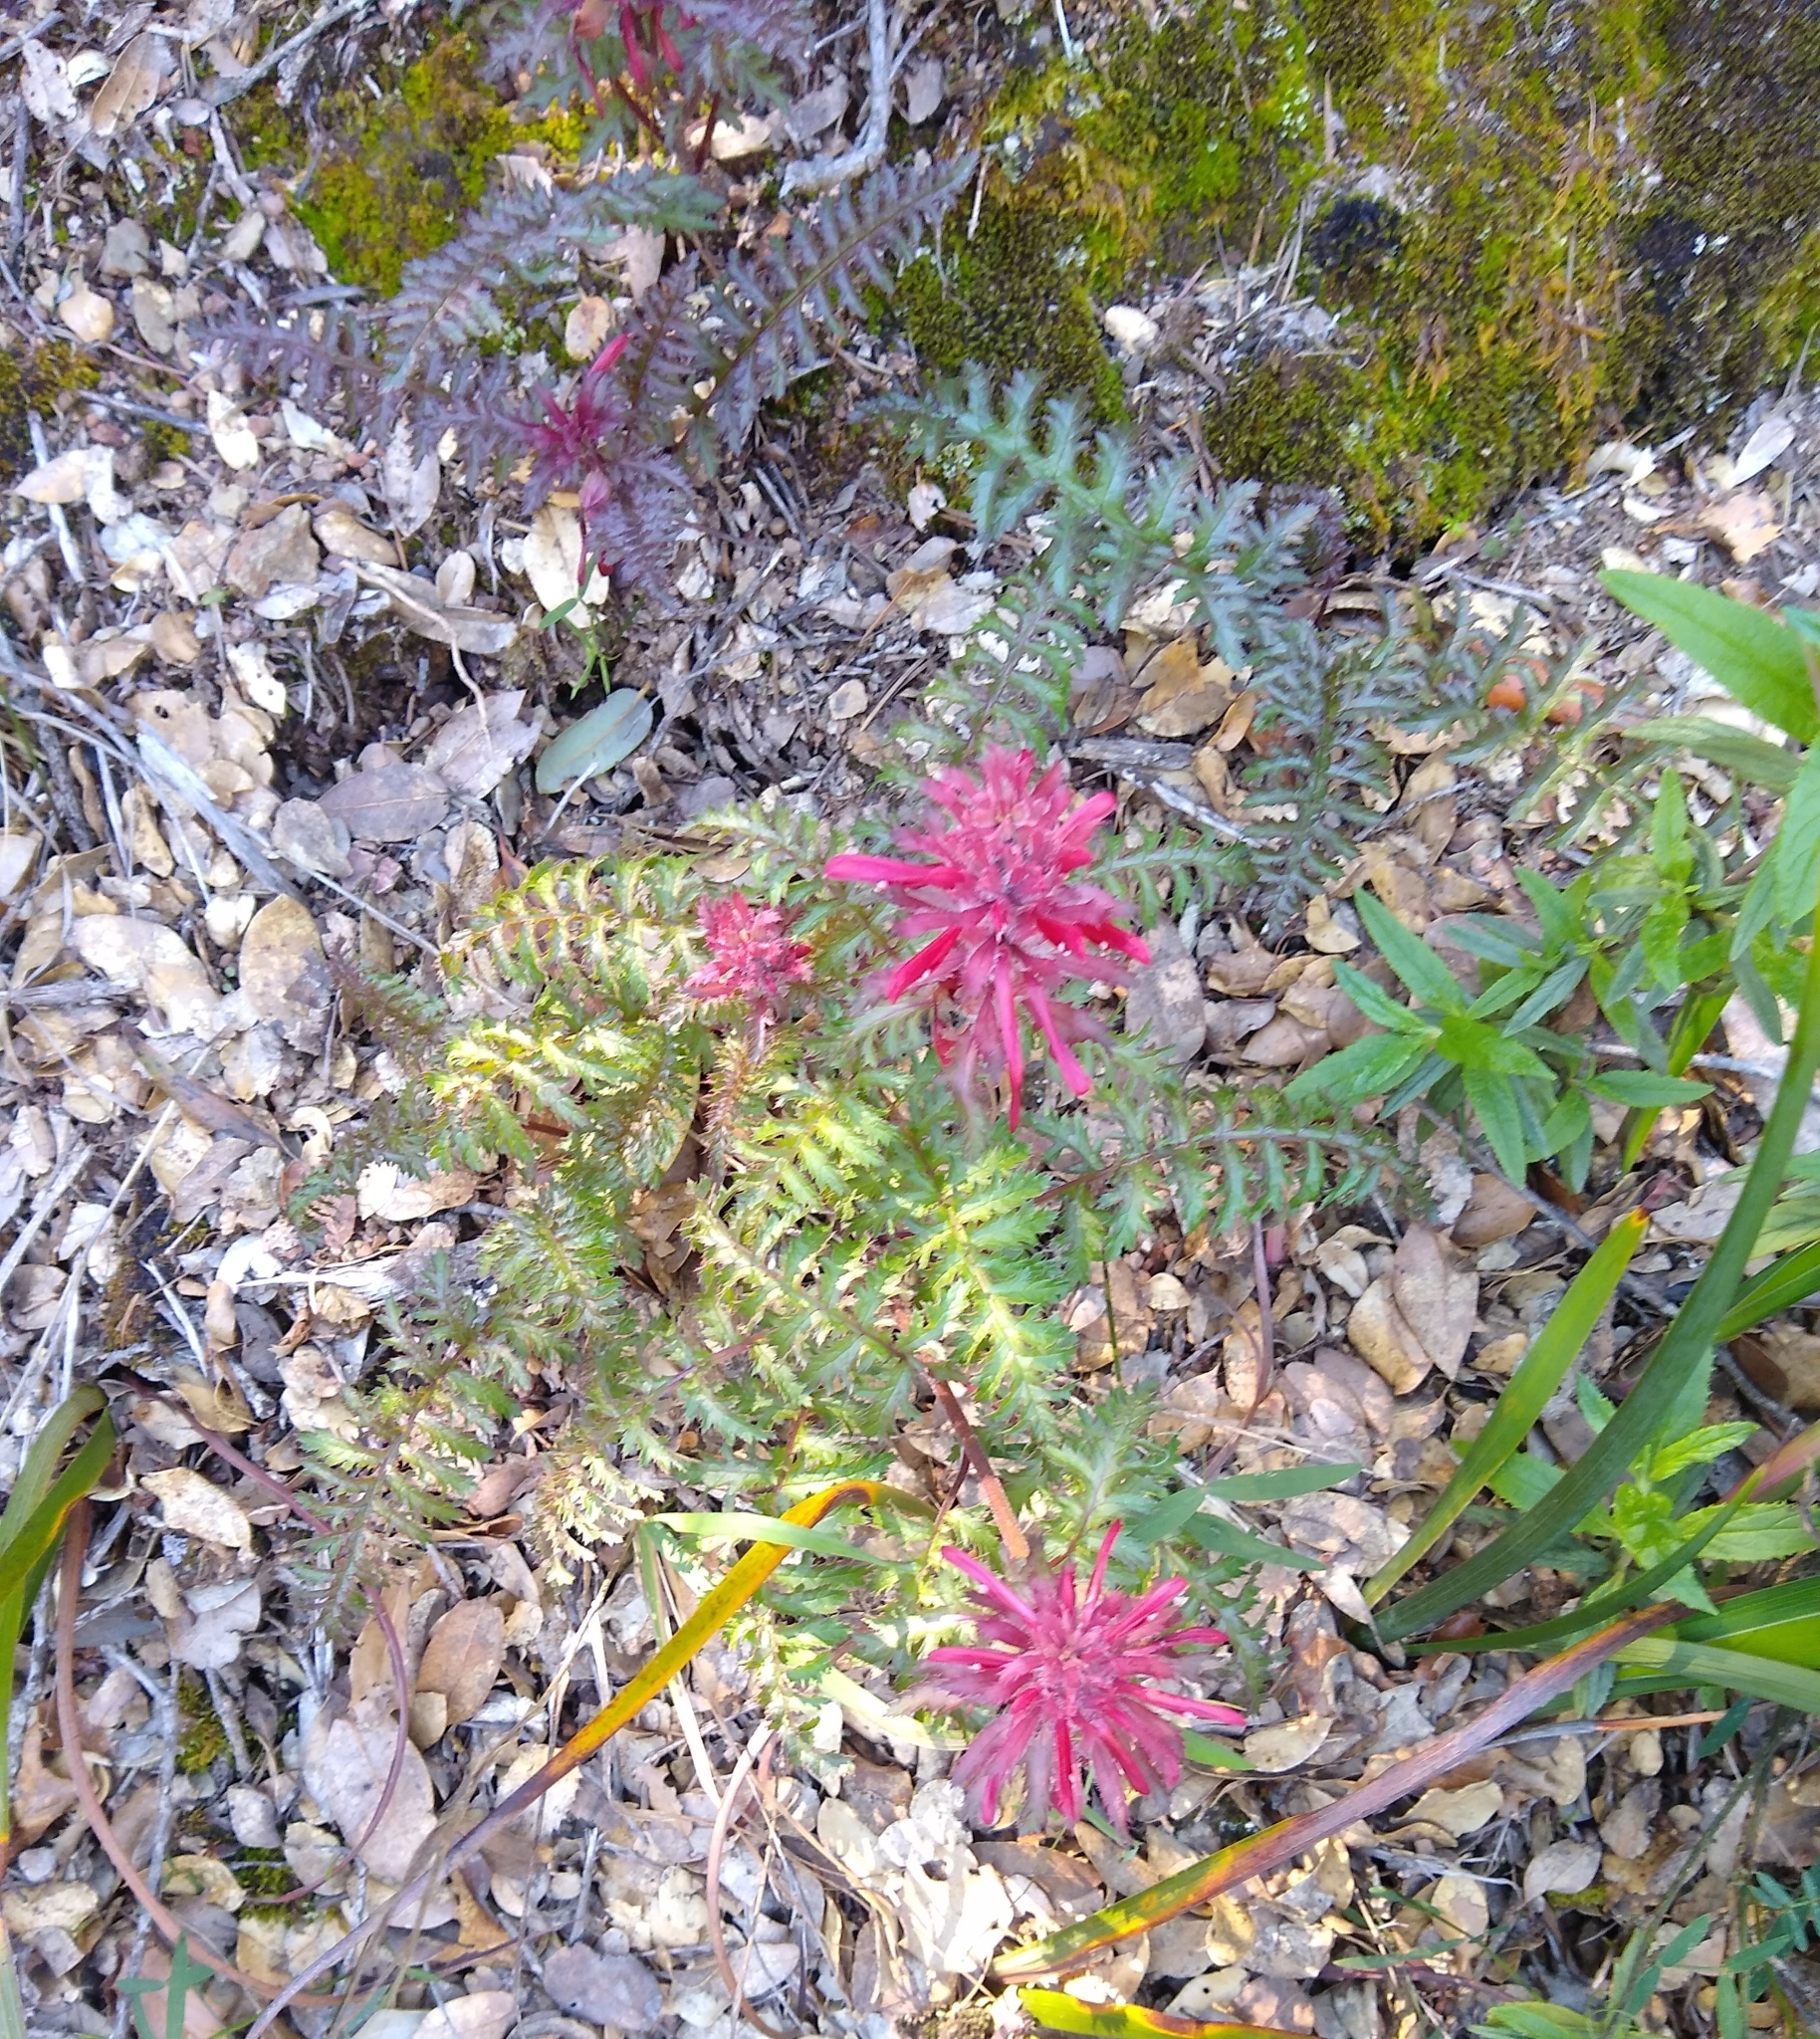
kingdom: Plantae
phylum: Tracheophyta
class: Magnoliopsida
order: Lamiales
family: Orobanchaceae
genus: Pedicularis
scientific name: Pedicularis densiflora
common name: Indian warrior
